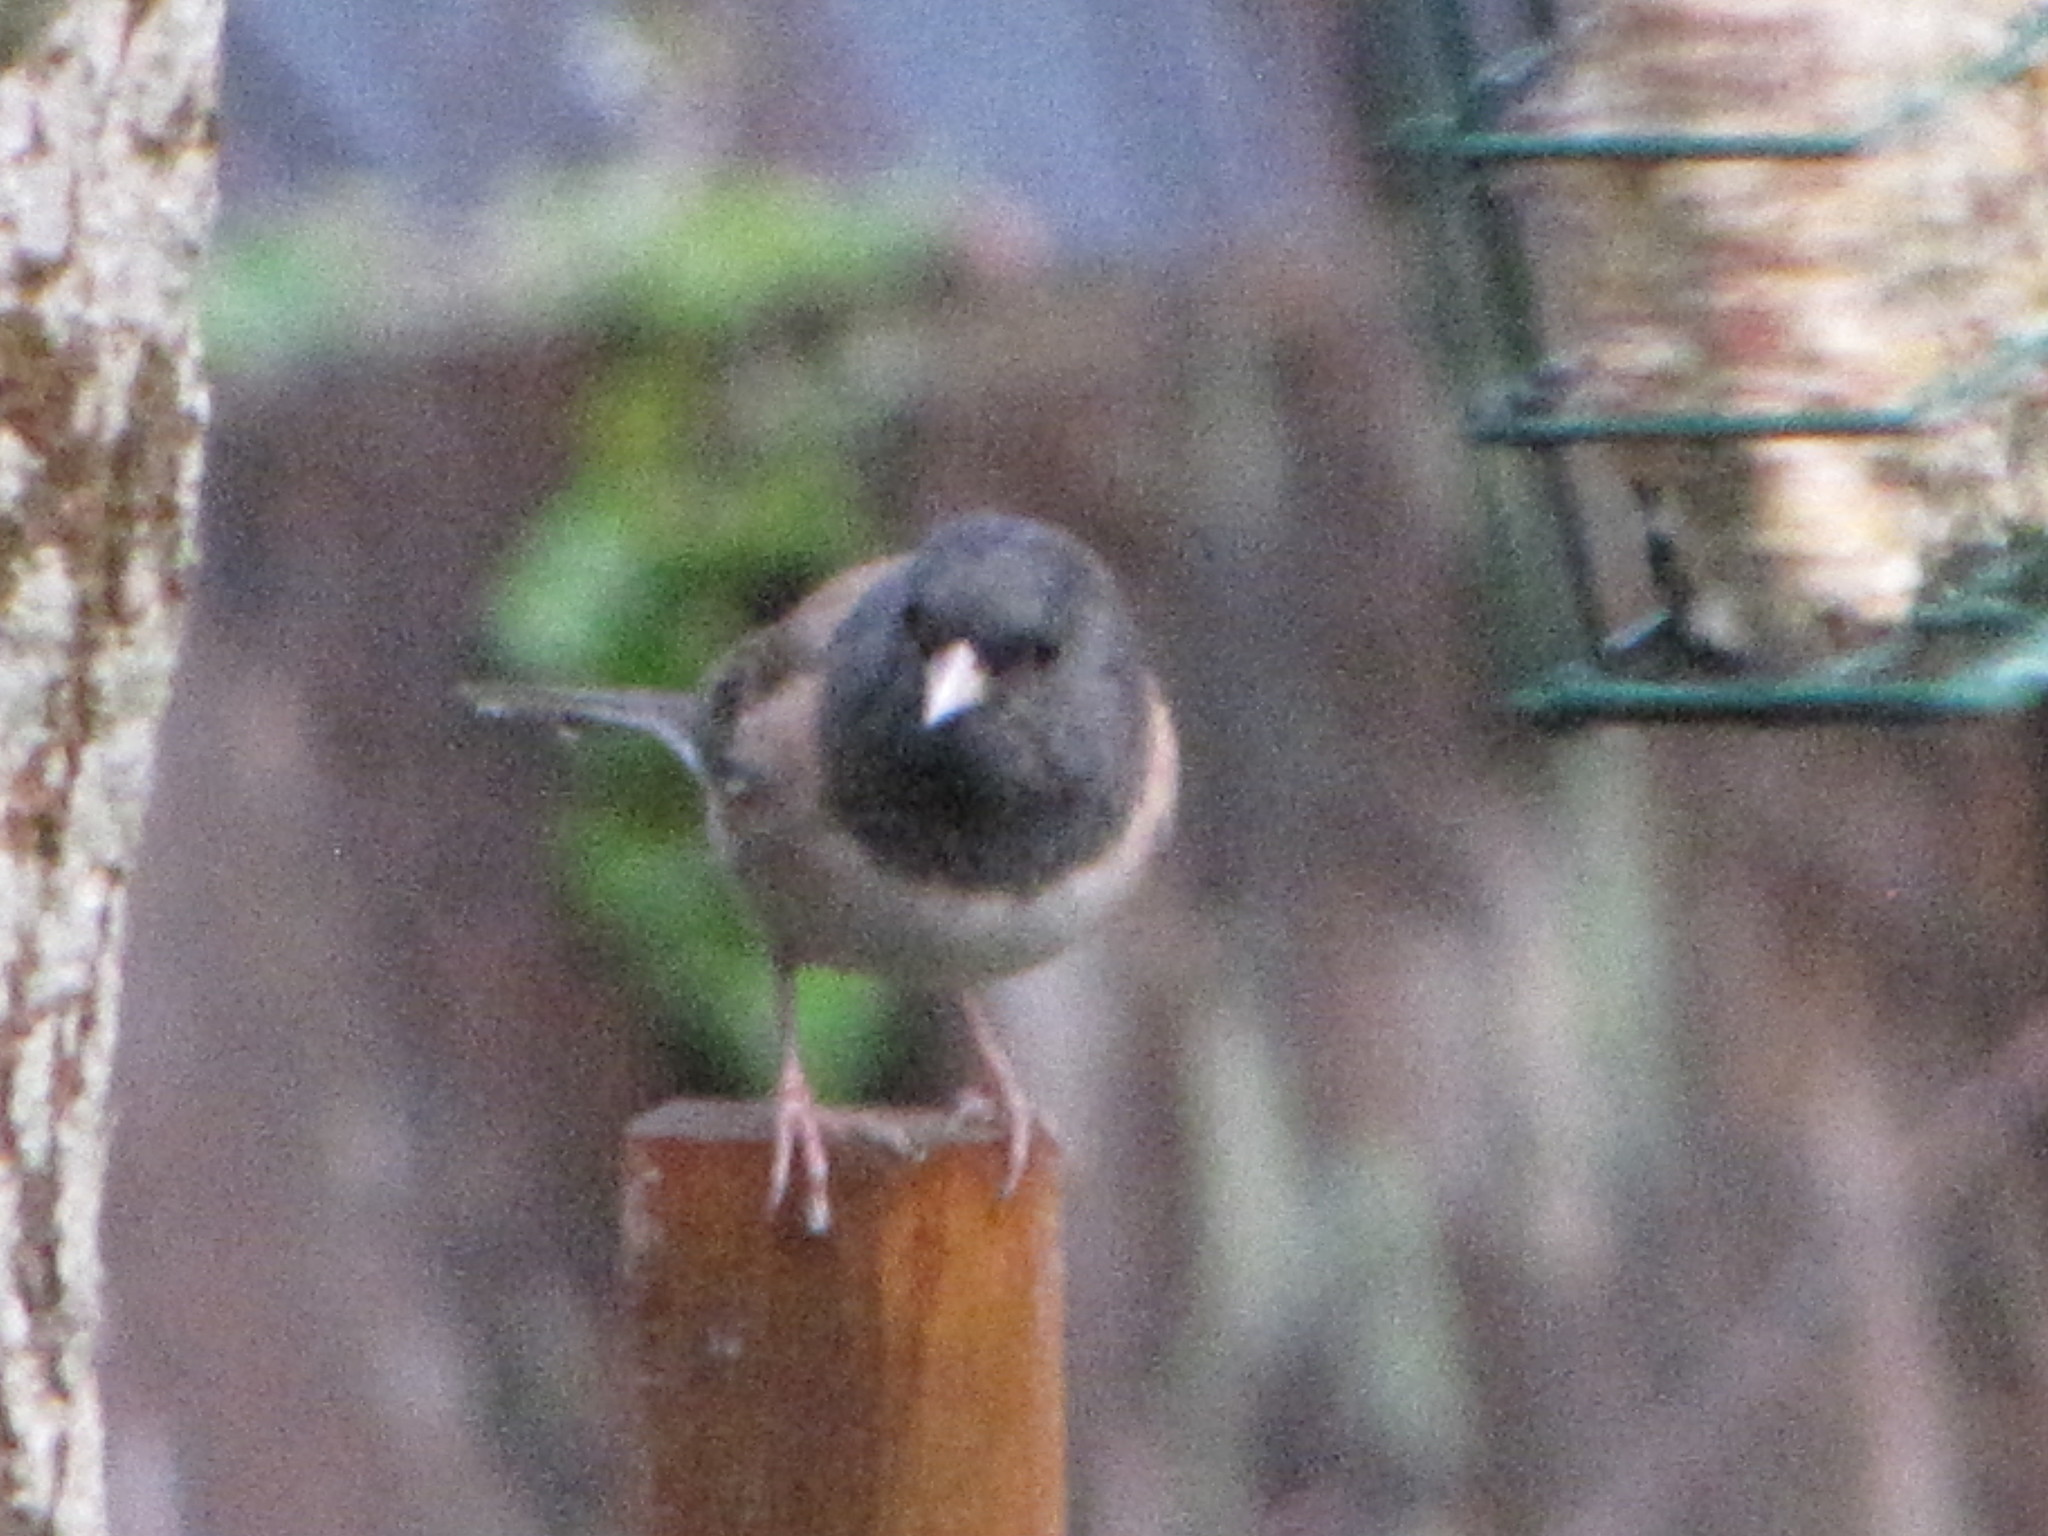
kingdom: Animalia
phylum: Chordata
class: Aves
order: Passeriformes
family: Passerellidae
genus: Junco
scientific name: Junco hyemalis
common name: Dark-eyed junco
